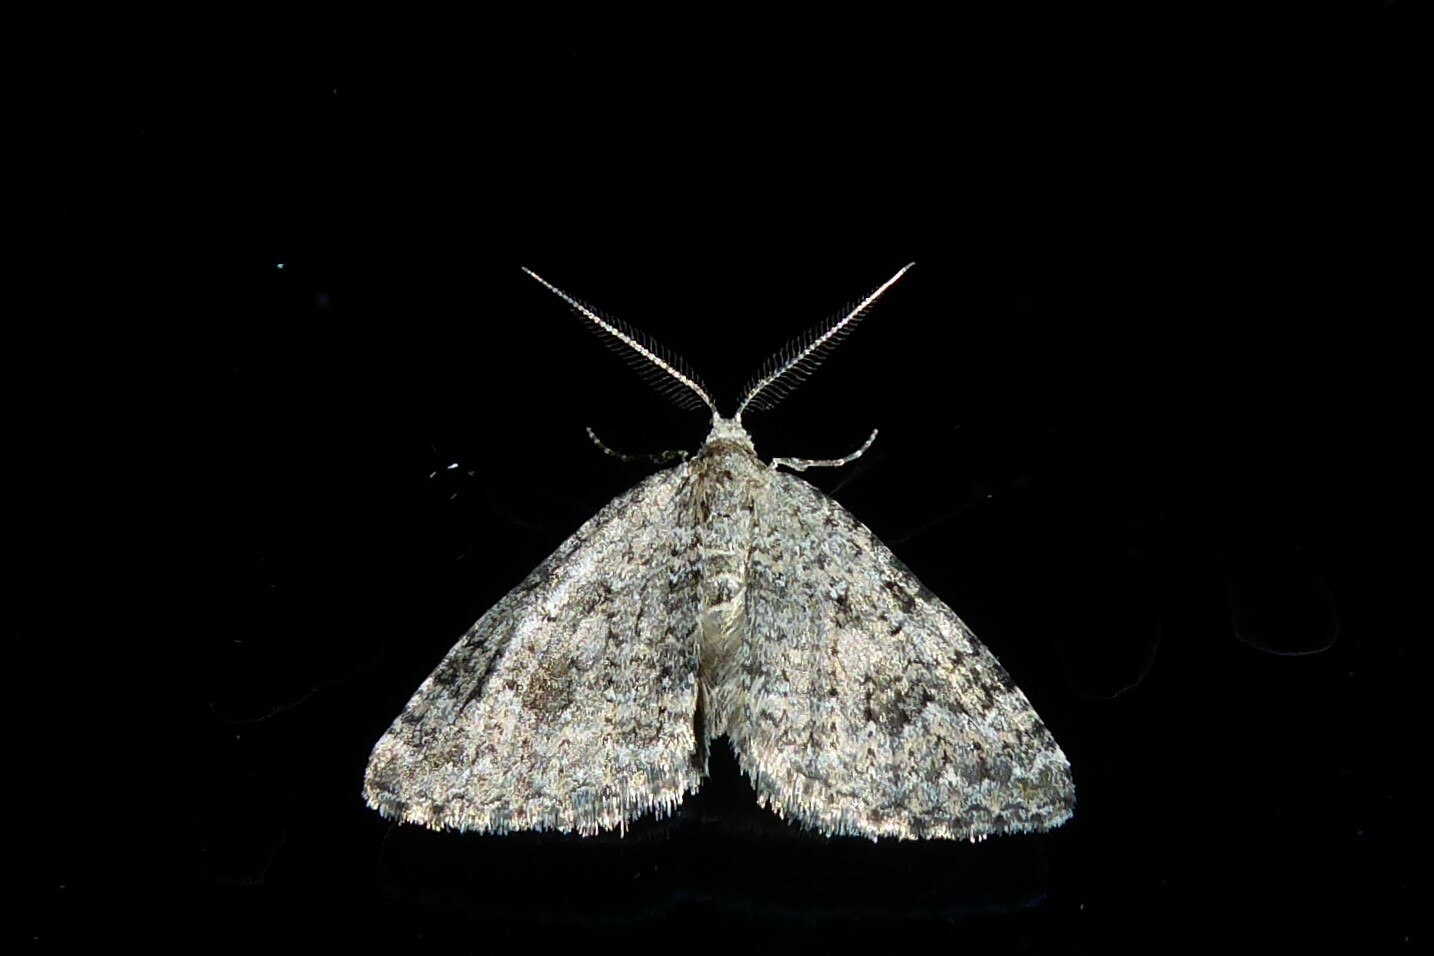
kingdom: Animalia
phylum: Arthropoda
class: Insecta
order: Lepidoptera
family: Geometridae
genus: Helastia
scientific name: Helastia corcularia
